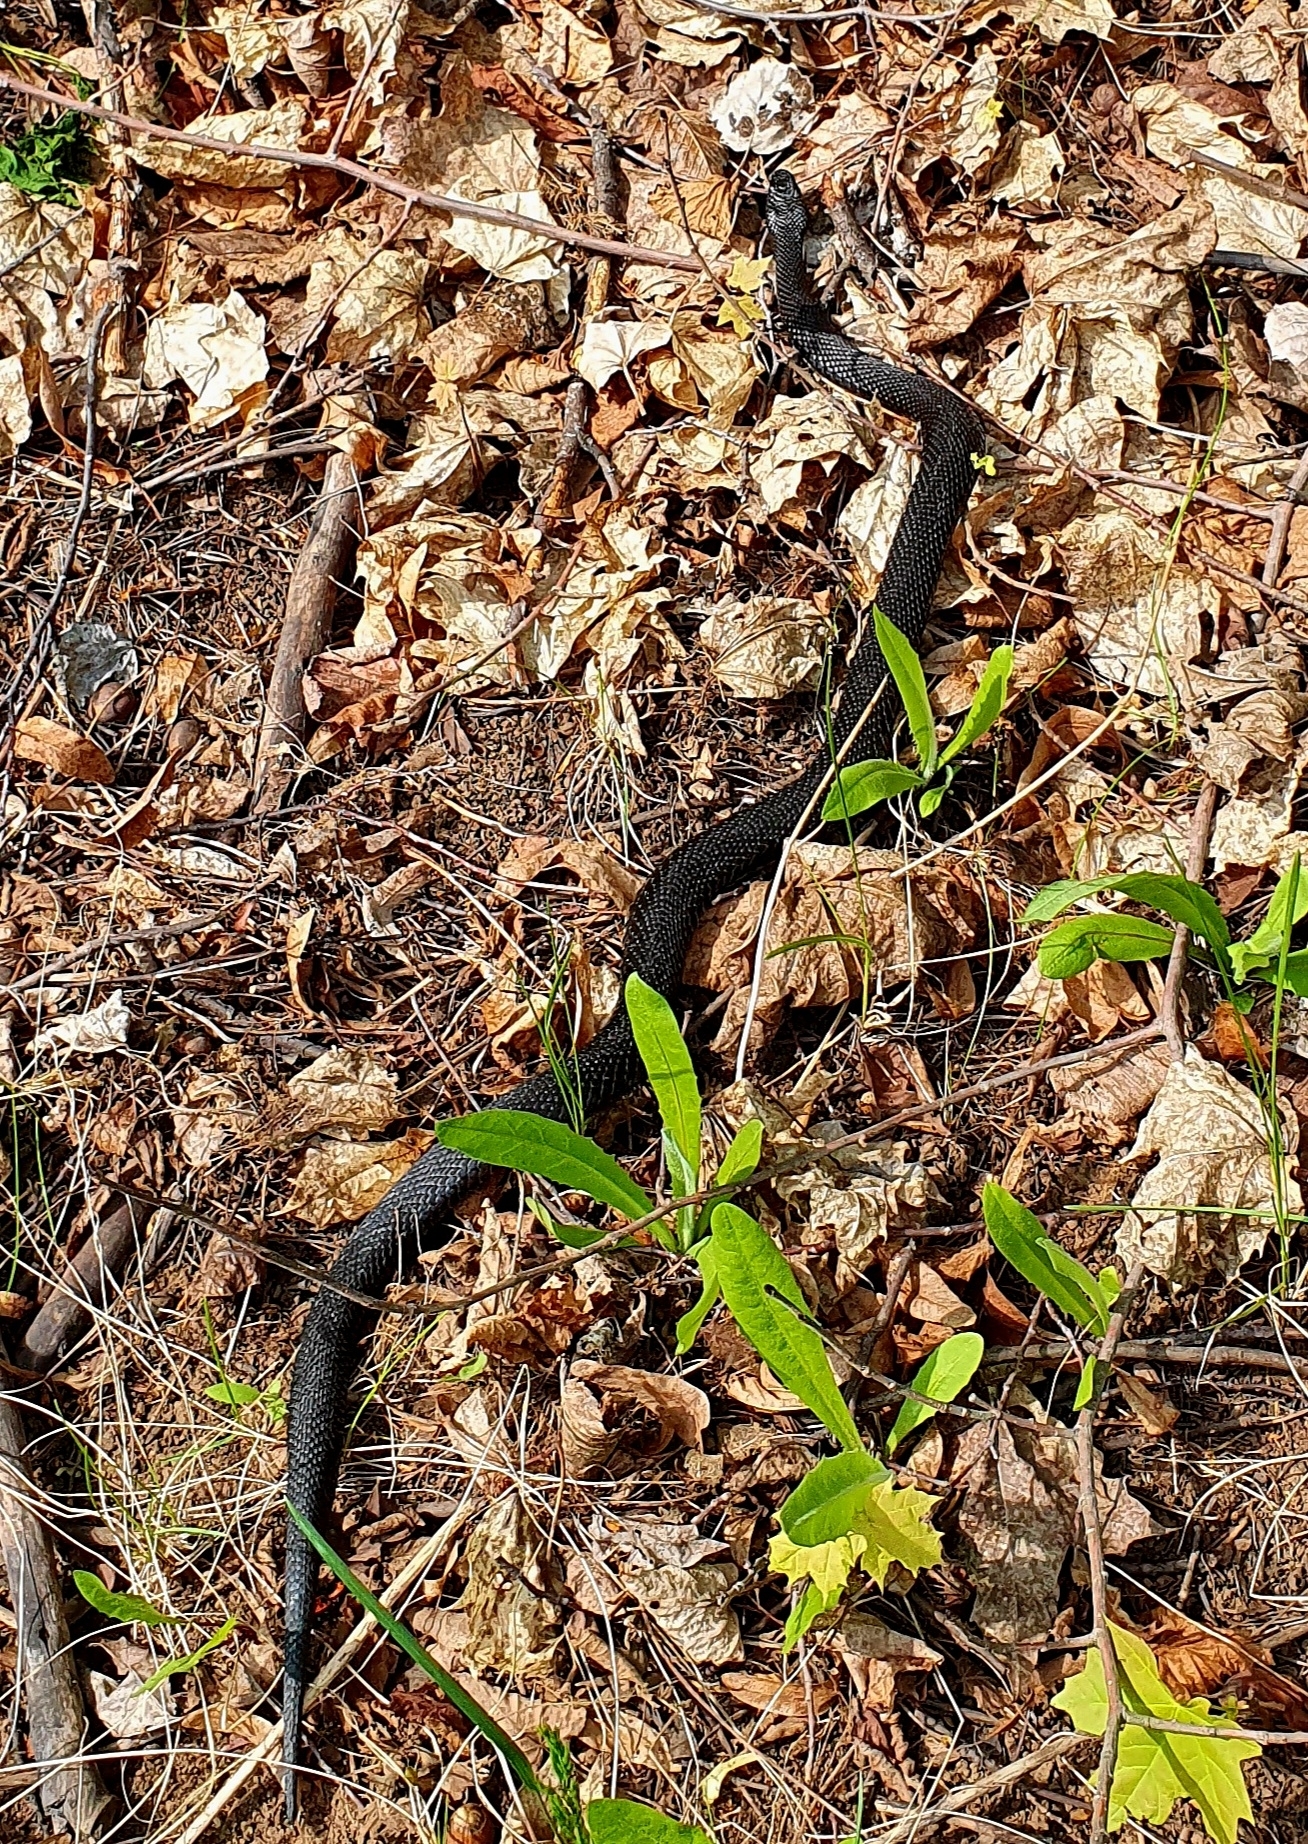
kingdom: Animalia
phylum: Chordata
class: Squamata
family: Viperidae
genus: Vipera
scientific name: Vipera nikolskii
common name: Adder
